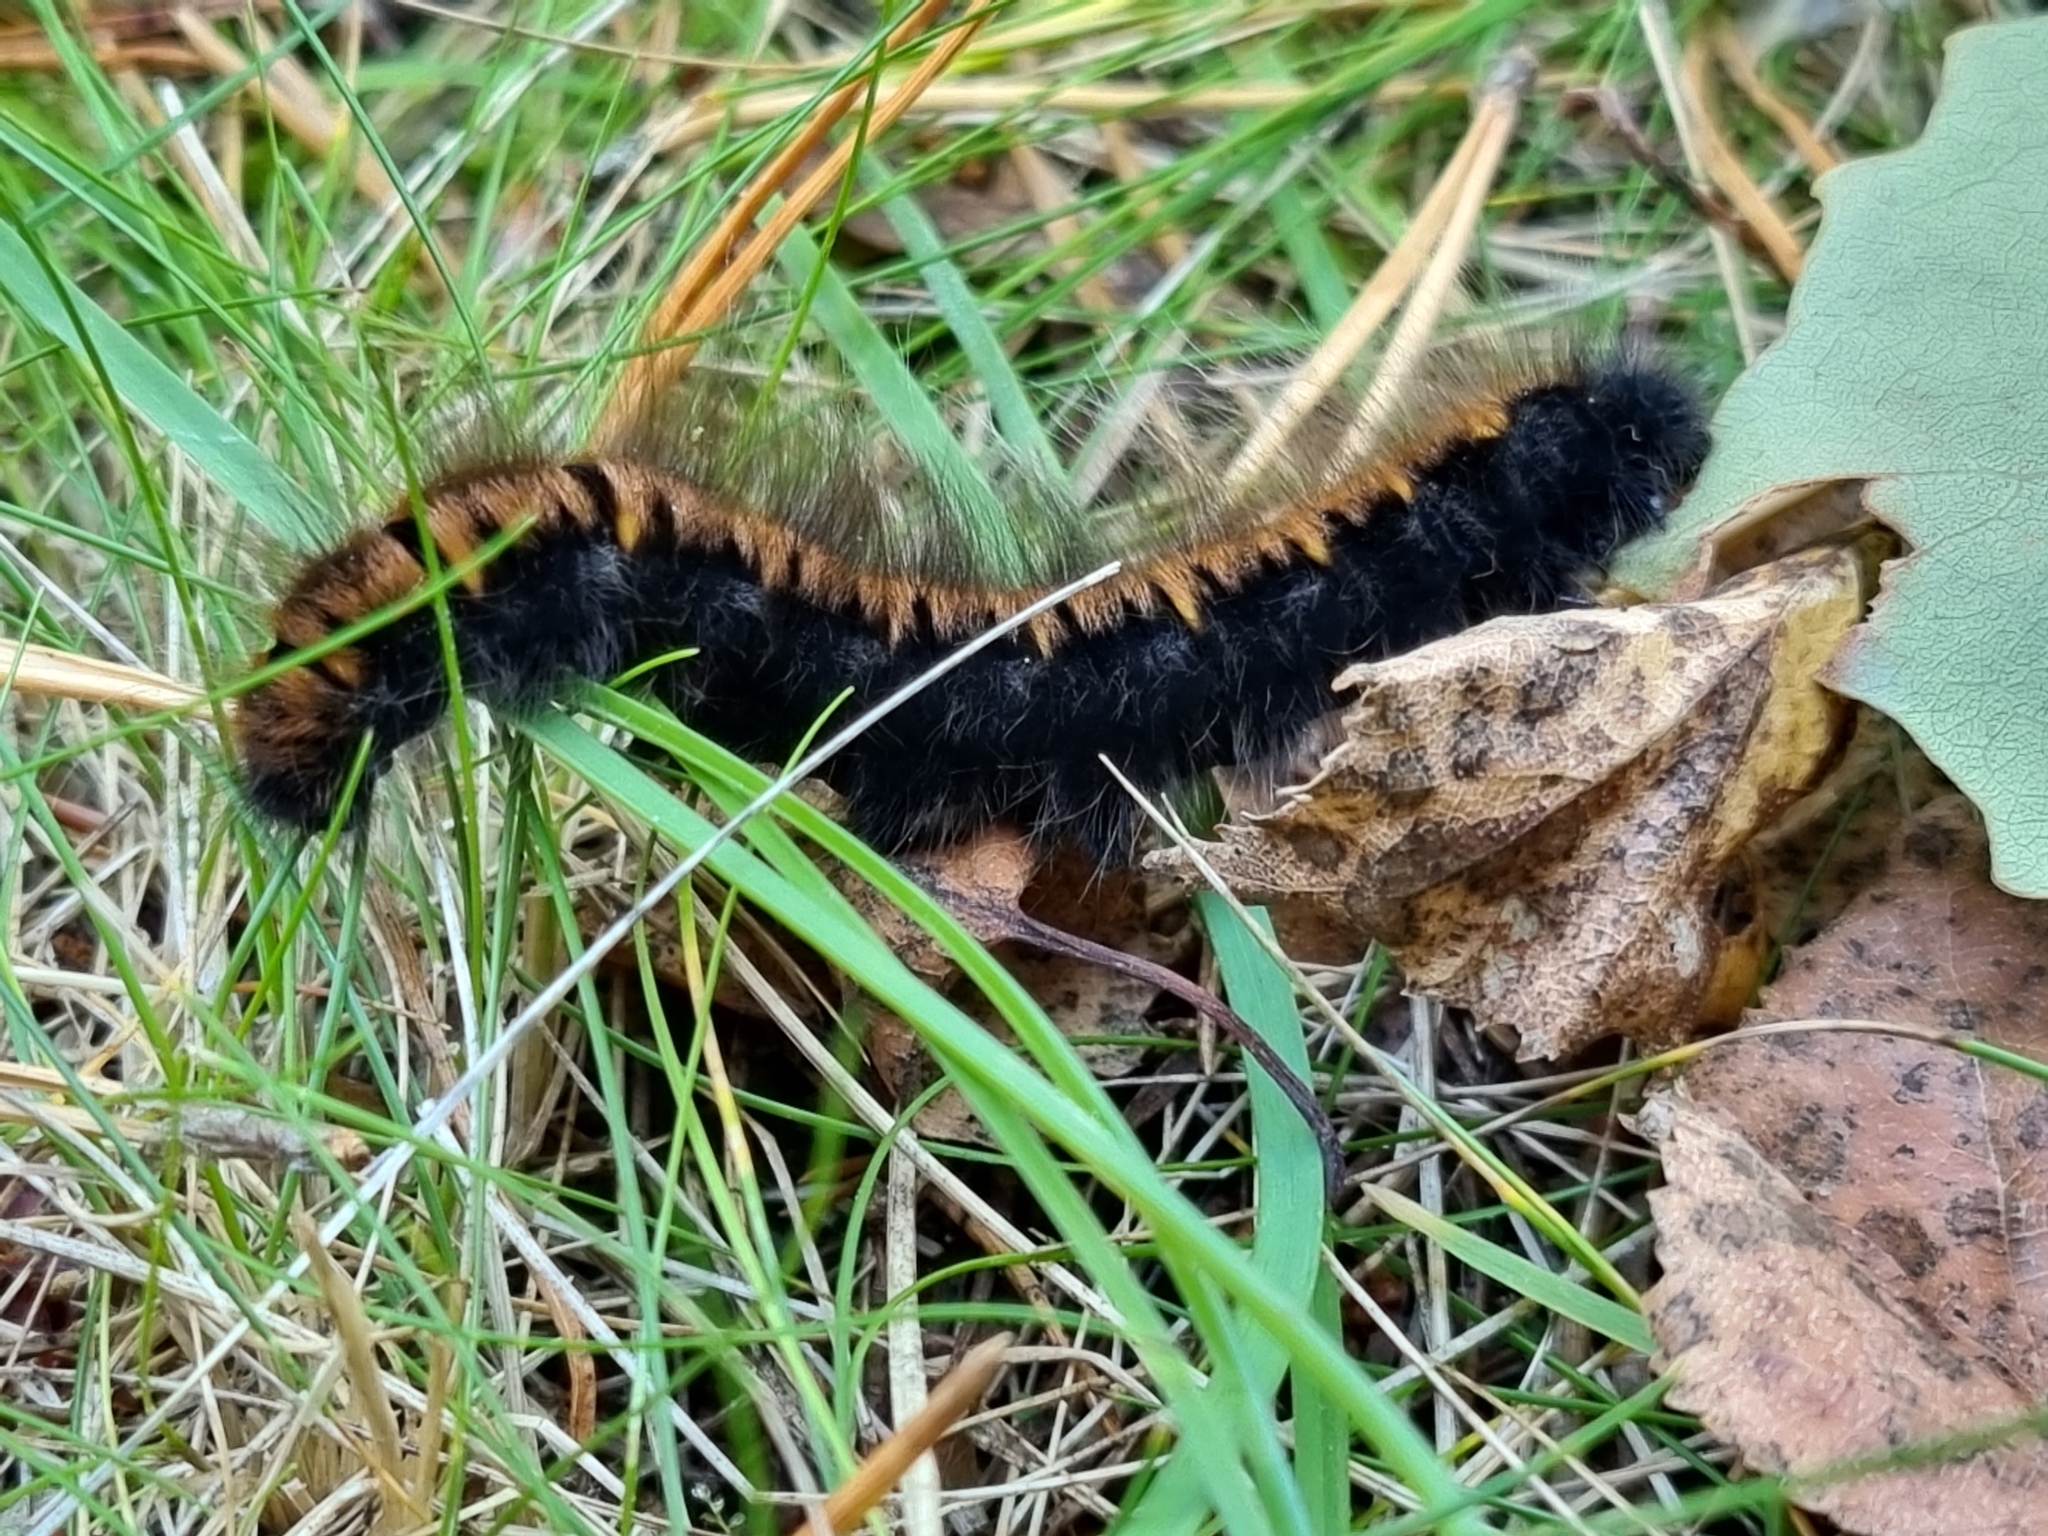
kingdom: Animalia
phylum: Arthropoda
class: Insecta
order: Lepidoptera
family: Lasiocampidae
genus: Macrothylacia
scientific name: Macrothylacia rubi
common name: Fox moth
